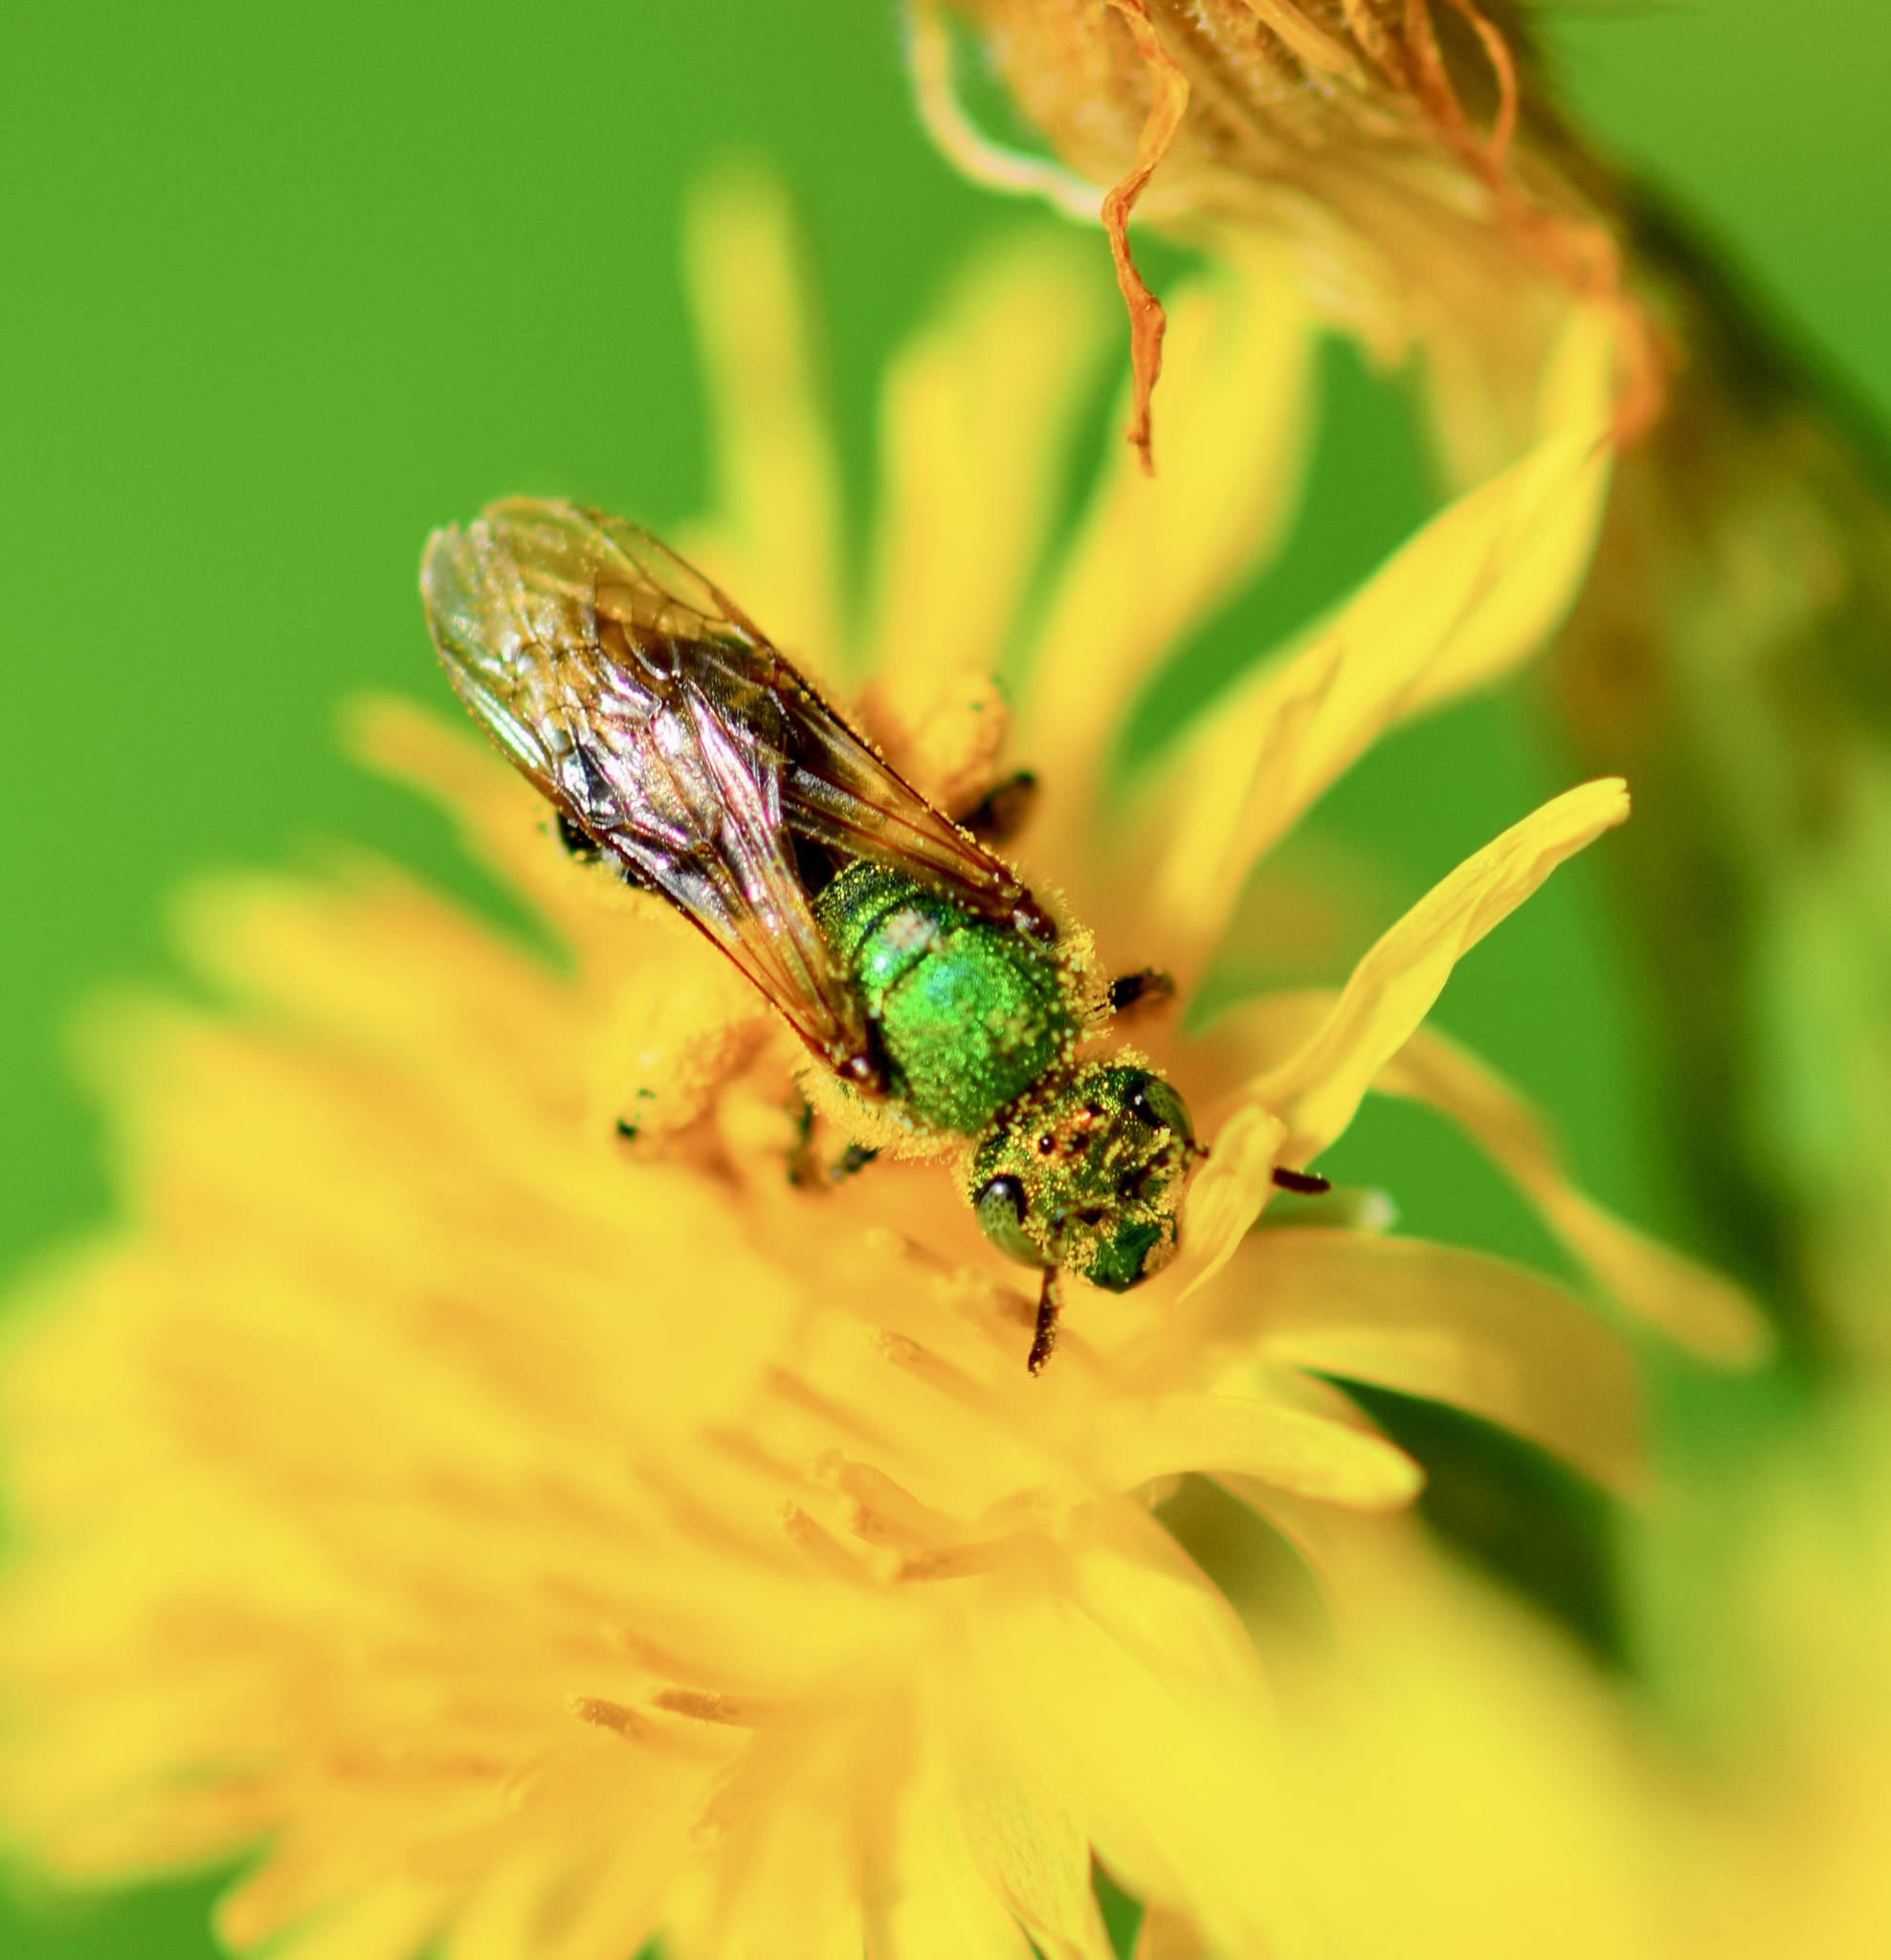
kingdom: Animalia
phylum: Arthropoda
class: Insecta
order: Hymenoptera
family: Halictidae
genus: Agapostemon
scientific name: Agapostemon virescens
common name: Bicolored striped sweat bee
